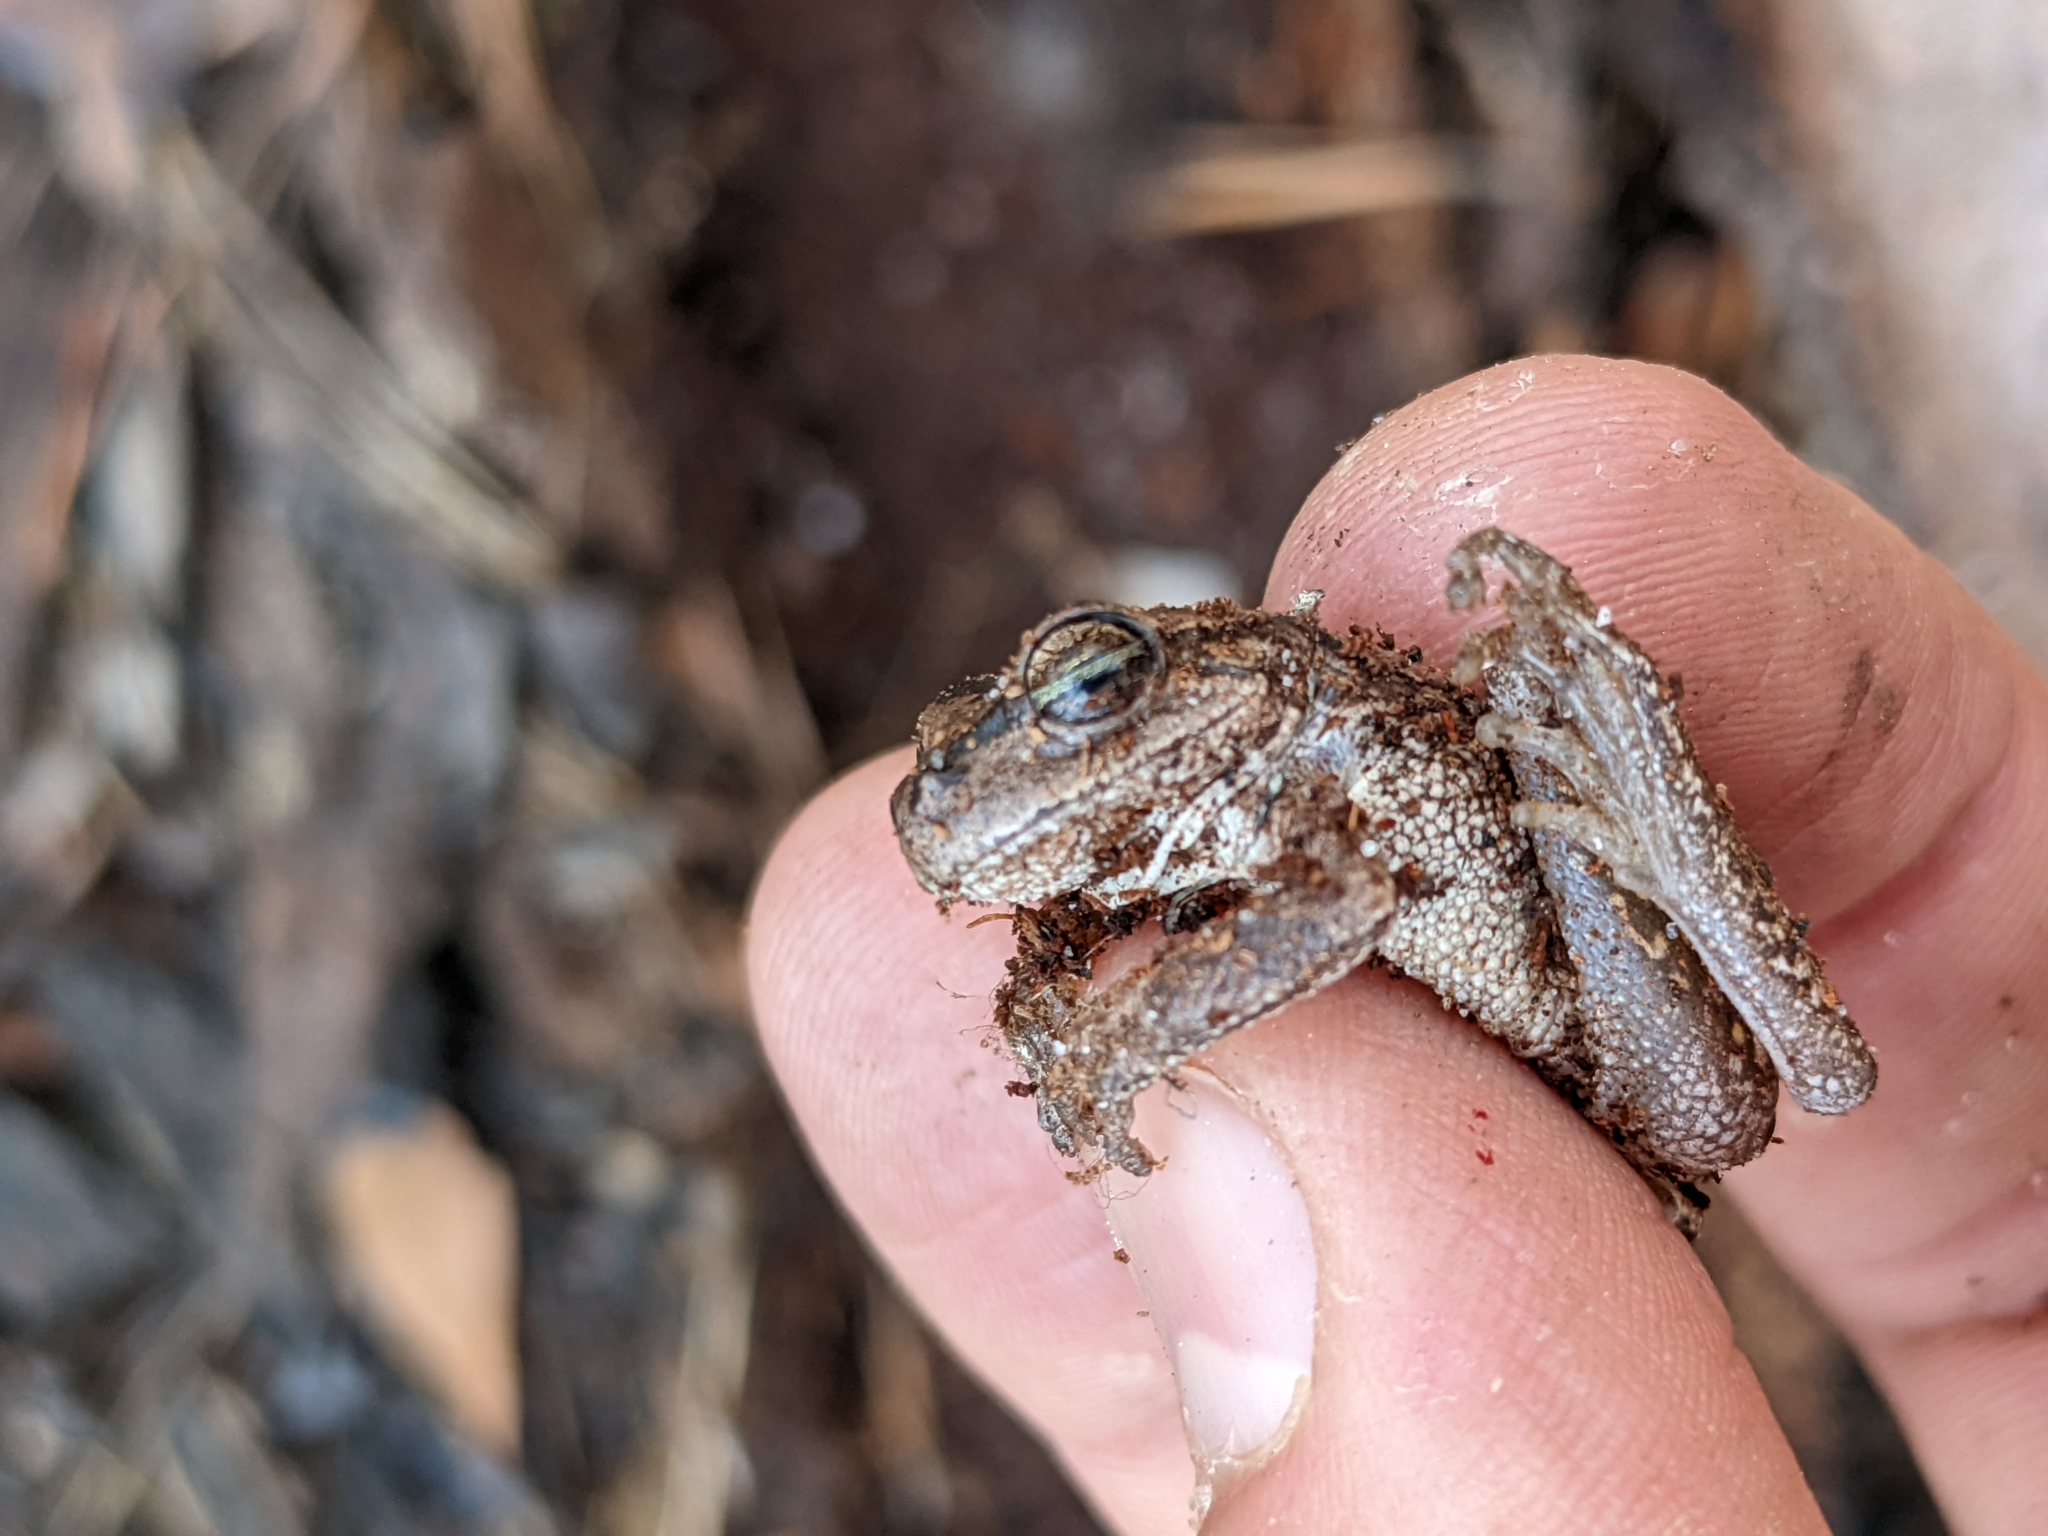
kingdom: Animalia
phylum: Chordata
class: Amphibia
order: Anura
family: Hylidae
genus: Hyla
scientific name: Hyla femoralis
